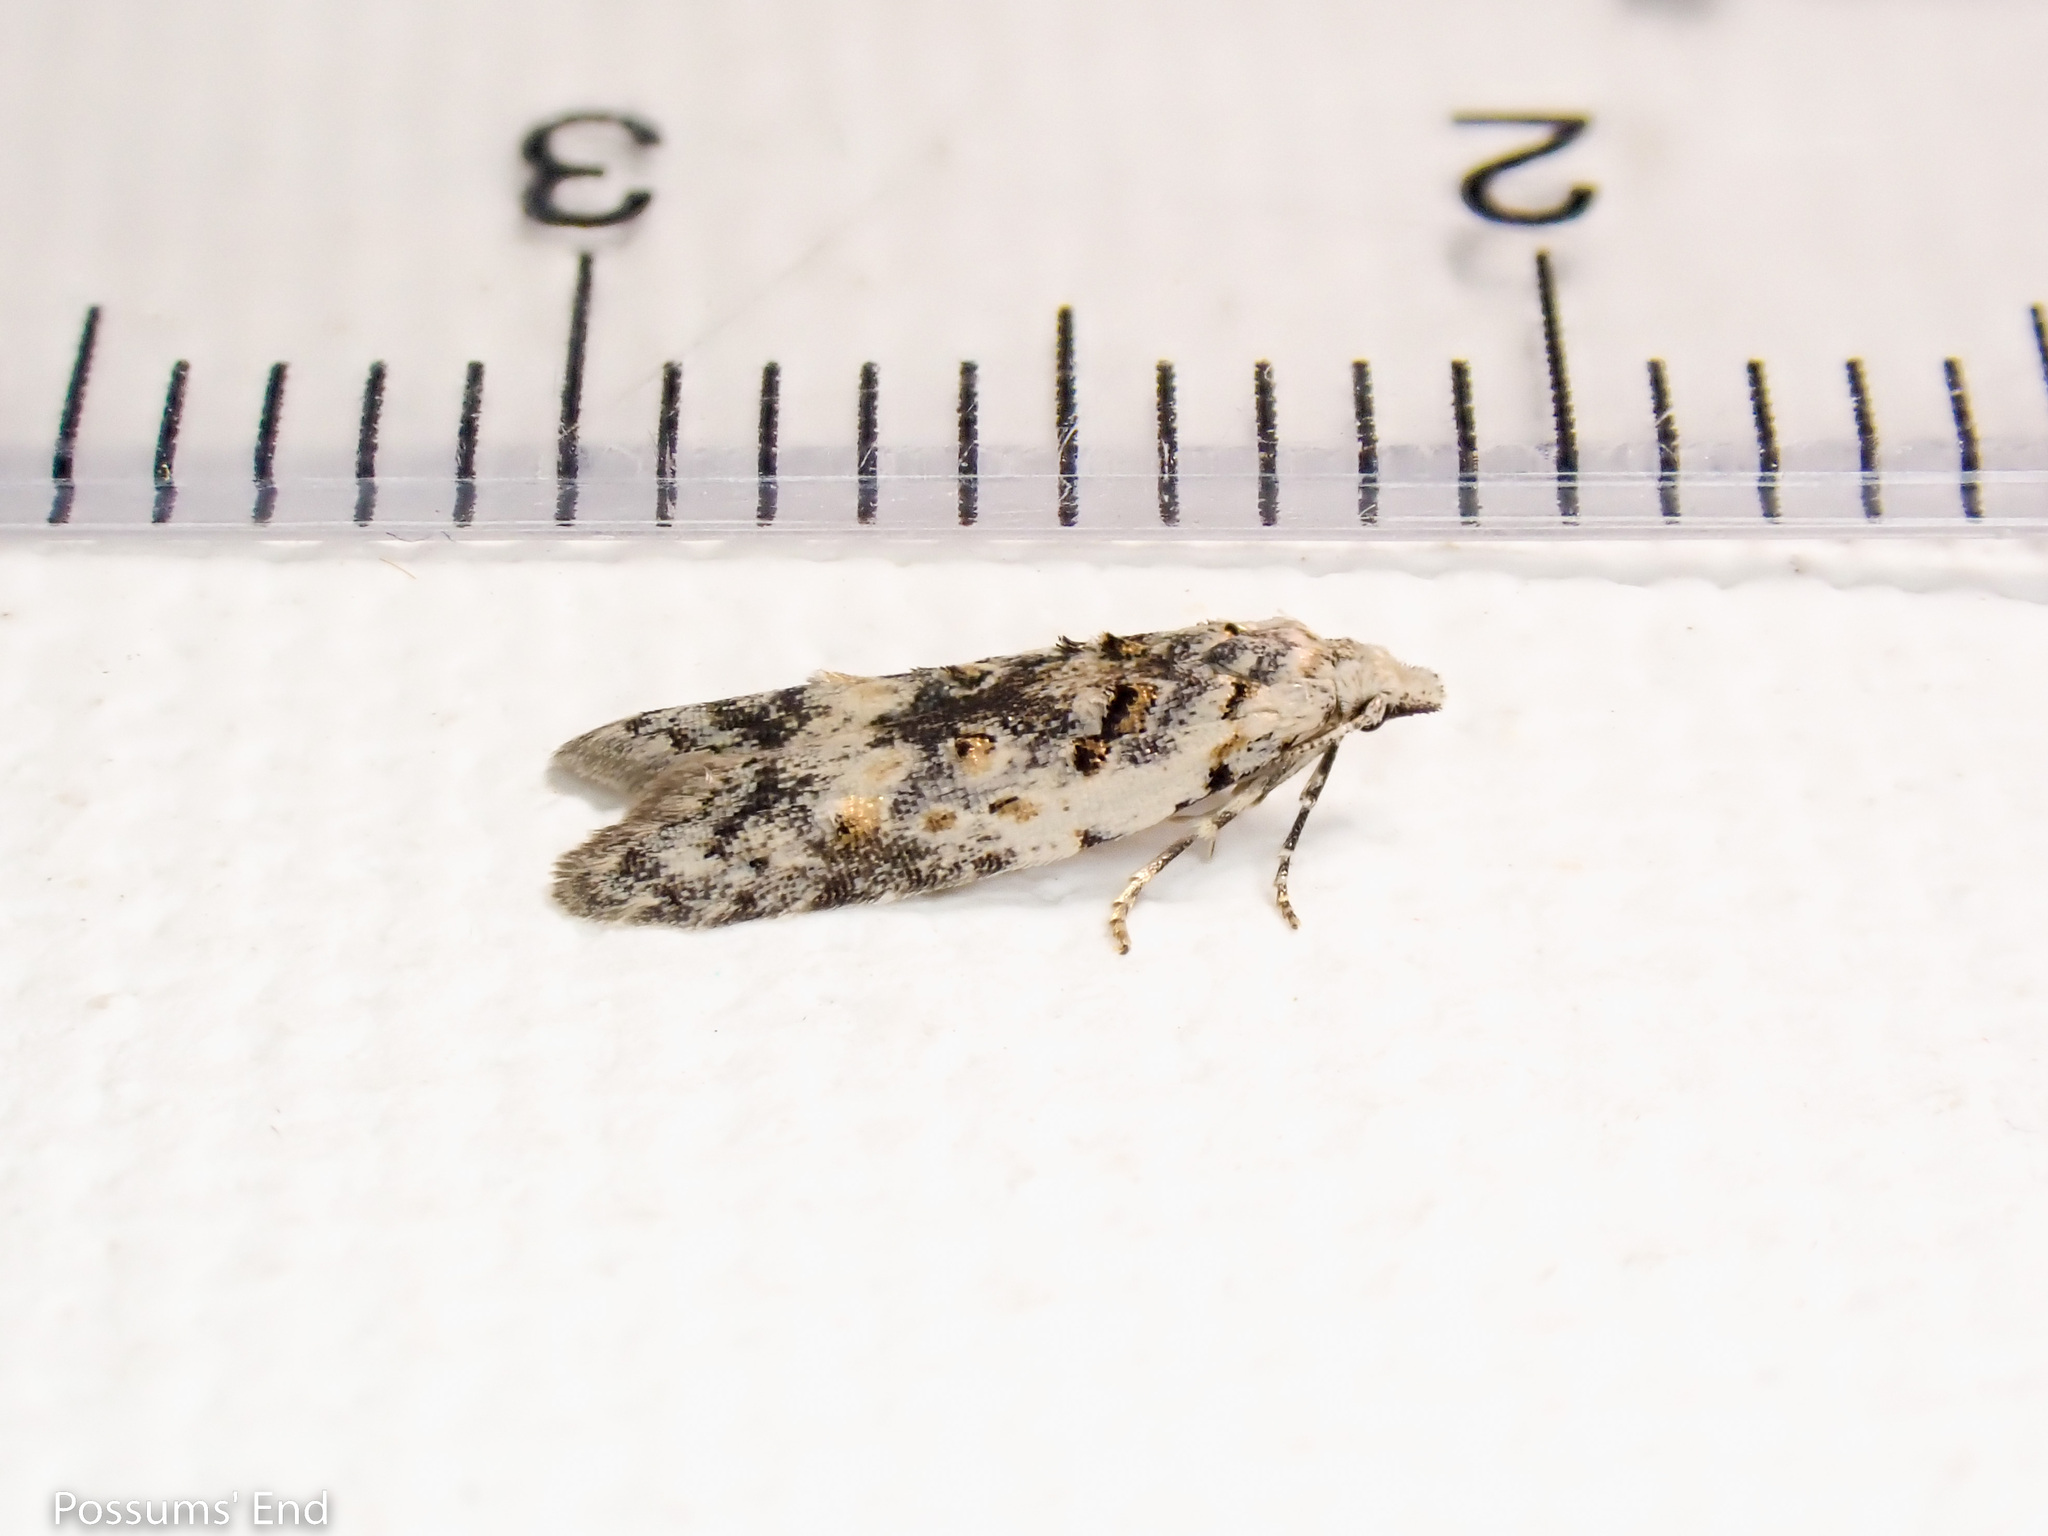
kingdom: Animalia
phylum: Arthropoda
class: Insecta
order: Lepidoptera
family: Carposinidae
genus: Carposina
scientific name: Carposina
